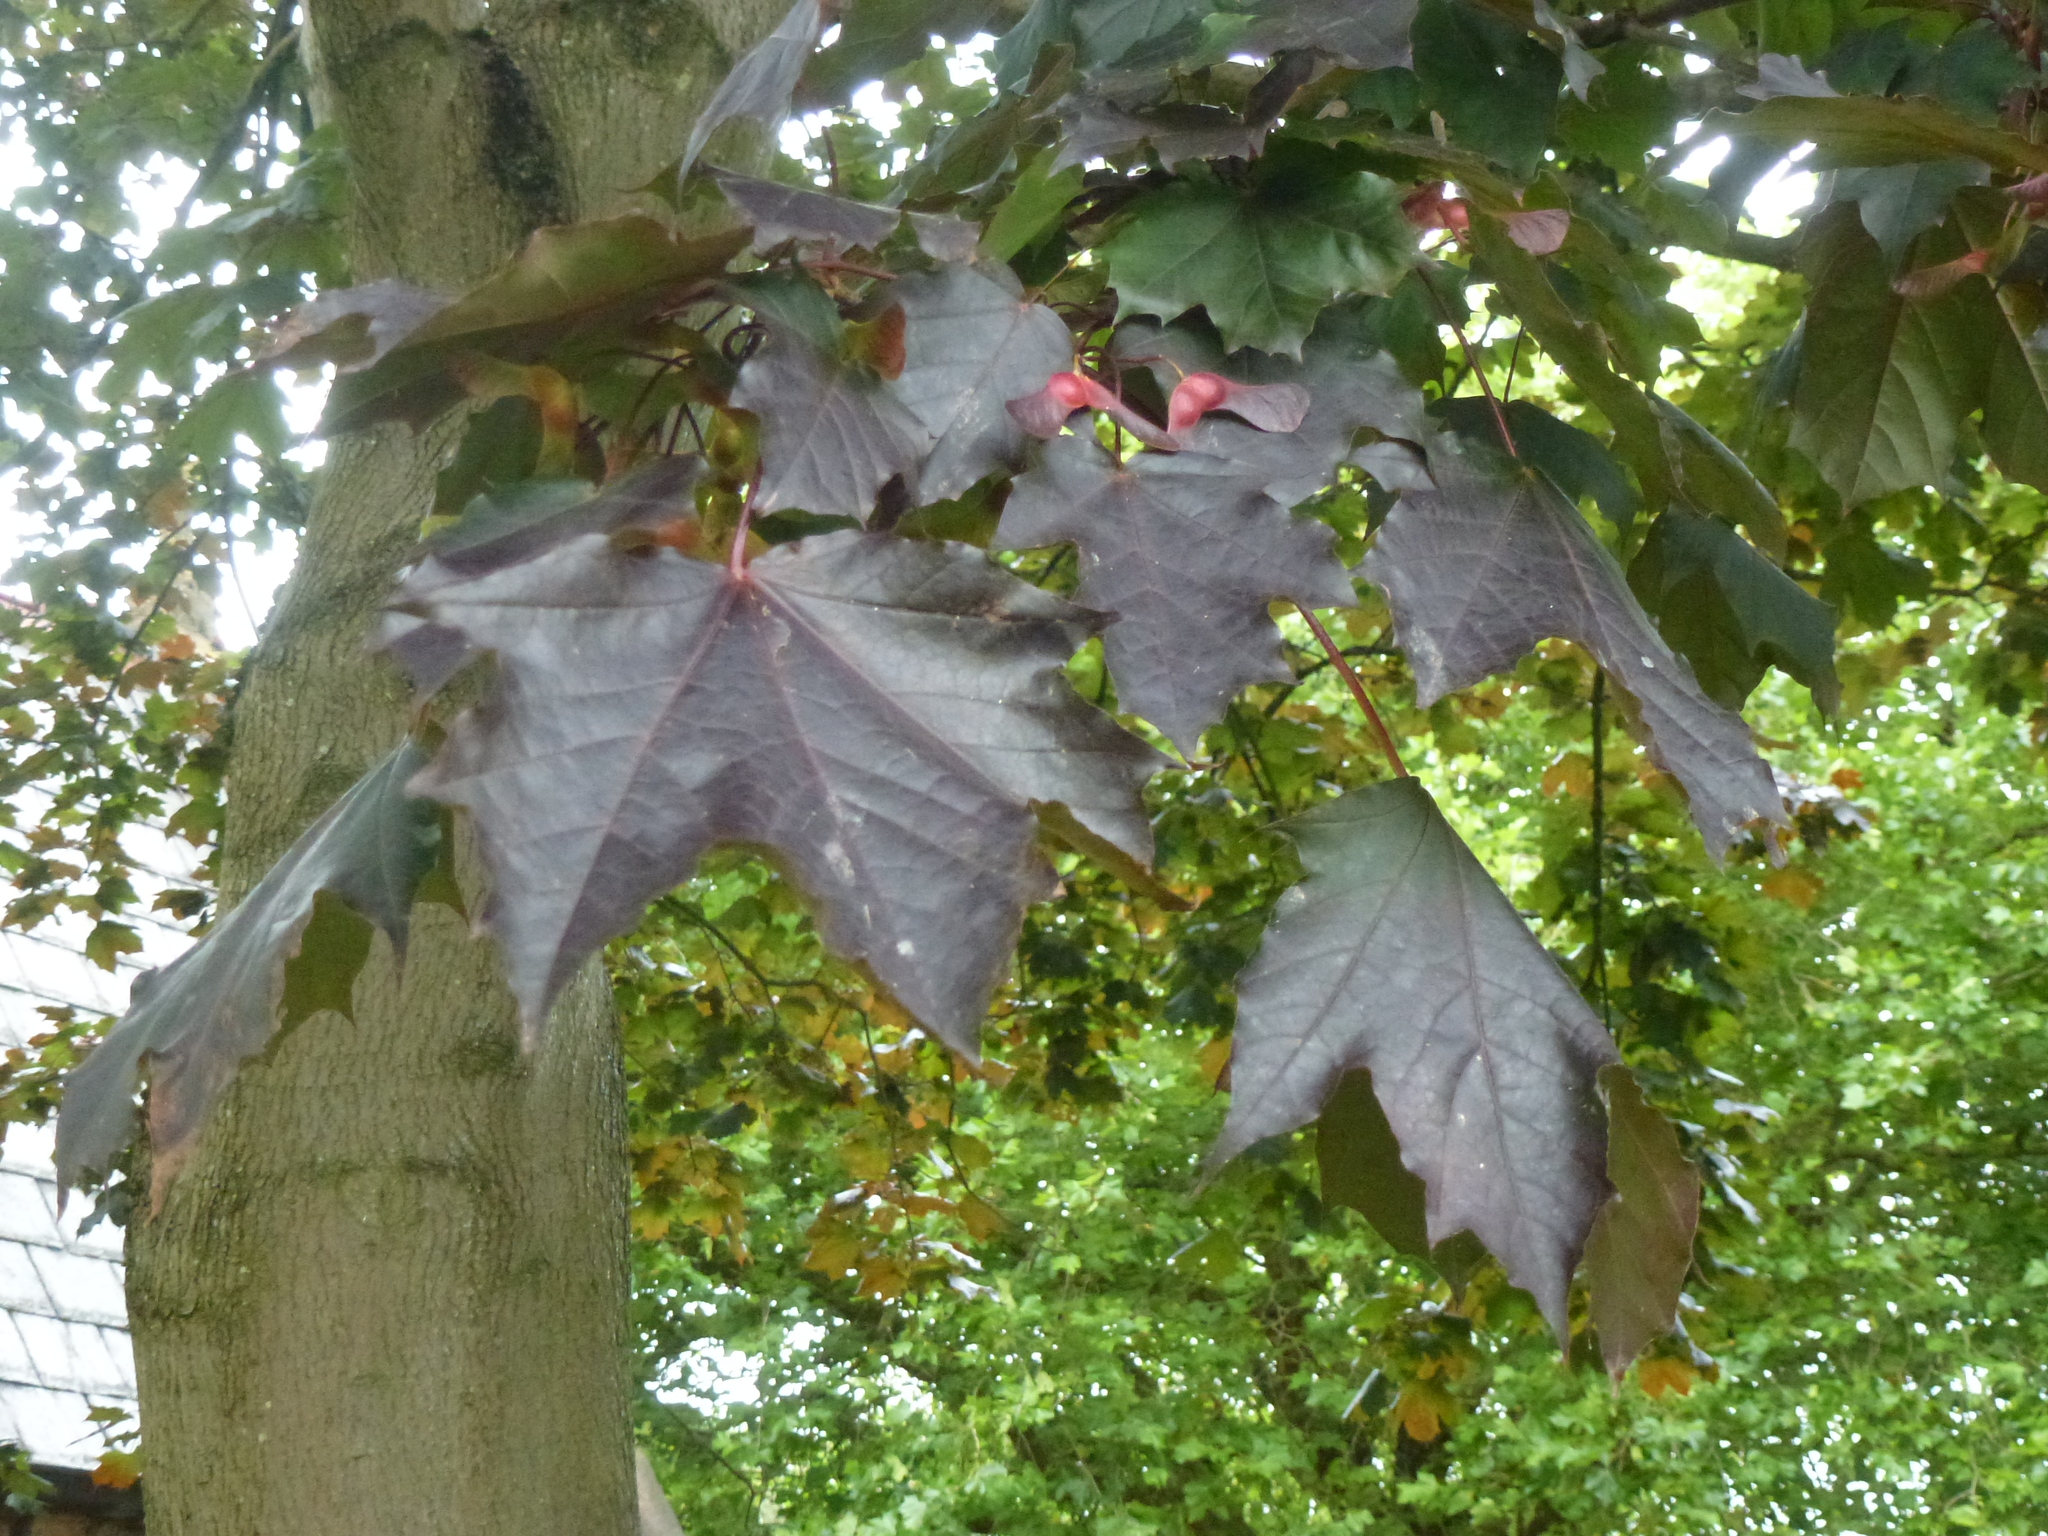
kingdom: Plantae
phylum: Tracheophyta
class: Magnoliopsida
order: Sapindales
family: Sapindaceae
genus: Acer
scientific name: Acer platanoides
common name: Norway maple
